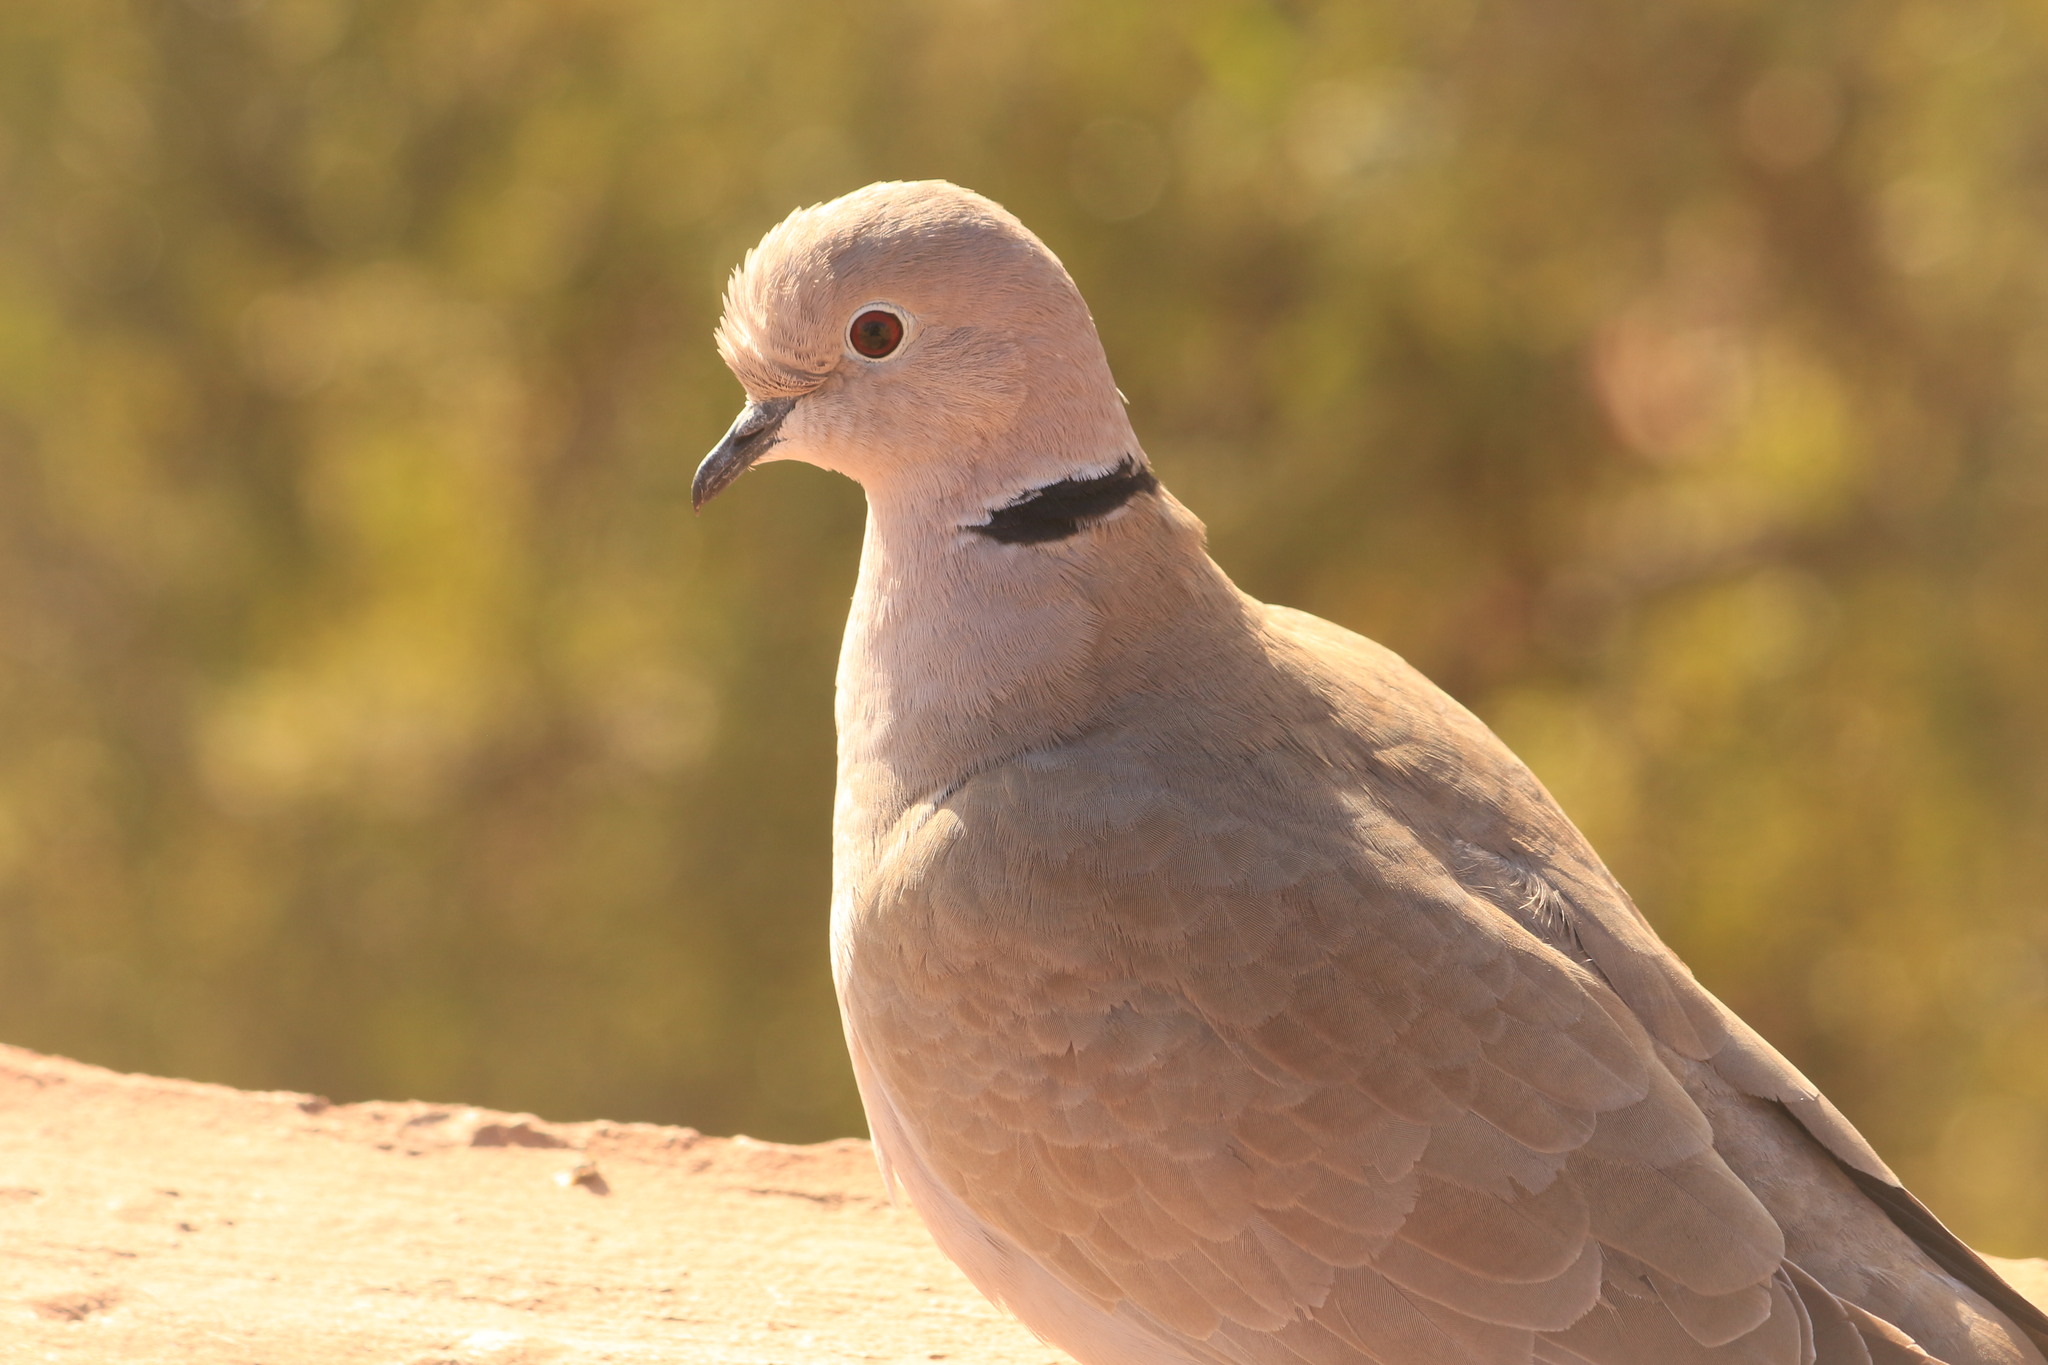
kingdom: Animalia
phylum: Chordata
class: Aves
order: Columbiformes
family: Columbidae
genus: Streptopelia
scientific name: Streptopelia decaocto
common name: Eurasian collared dove
